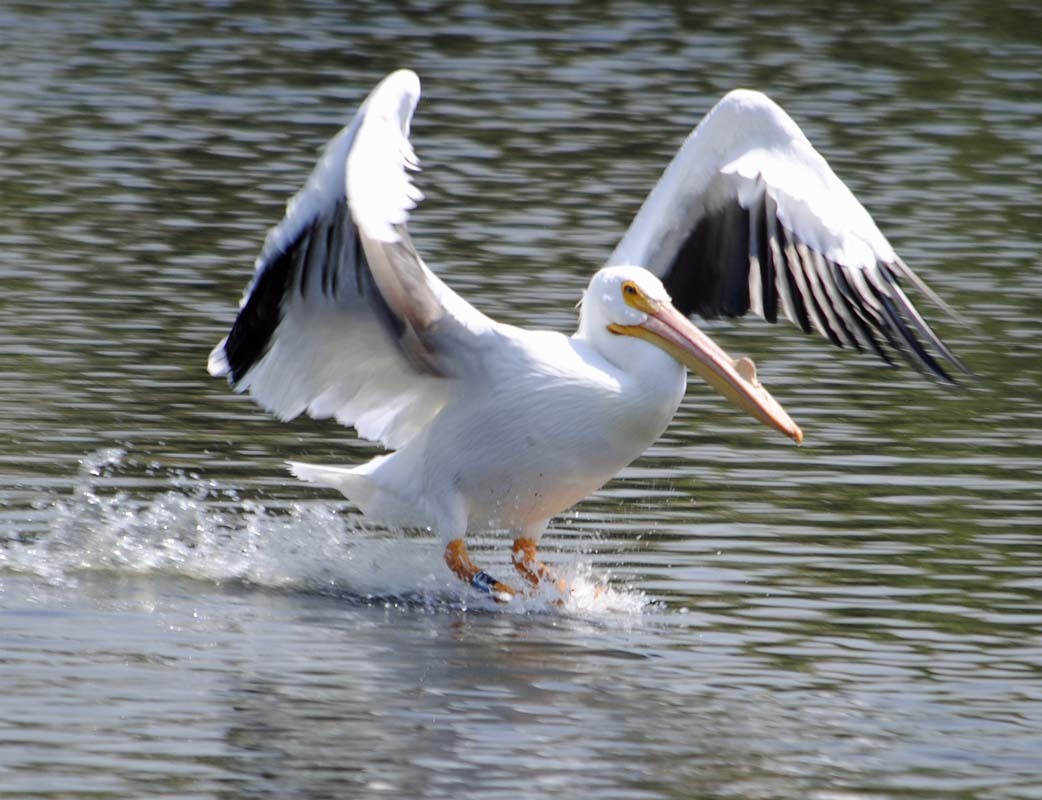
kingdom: Animalia
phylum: Chordata
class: Aves
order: Pelecaniformes
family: Pelecanidae
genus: Pelecanus
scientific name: Pelecanus erythrorhynchos
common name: American white pelican
